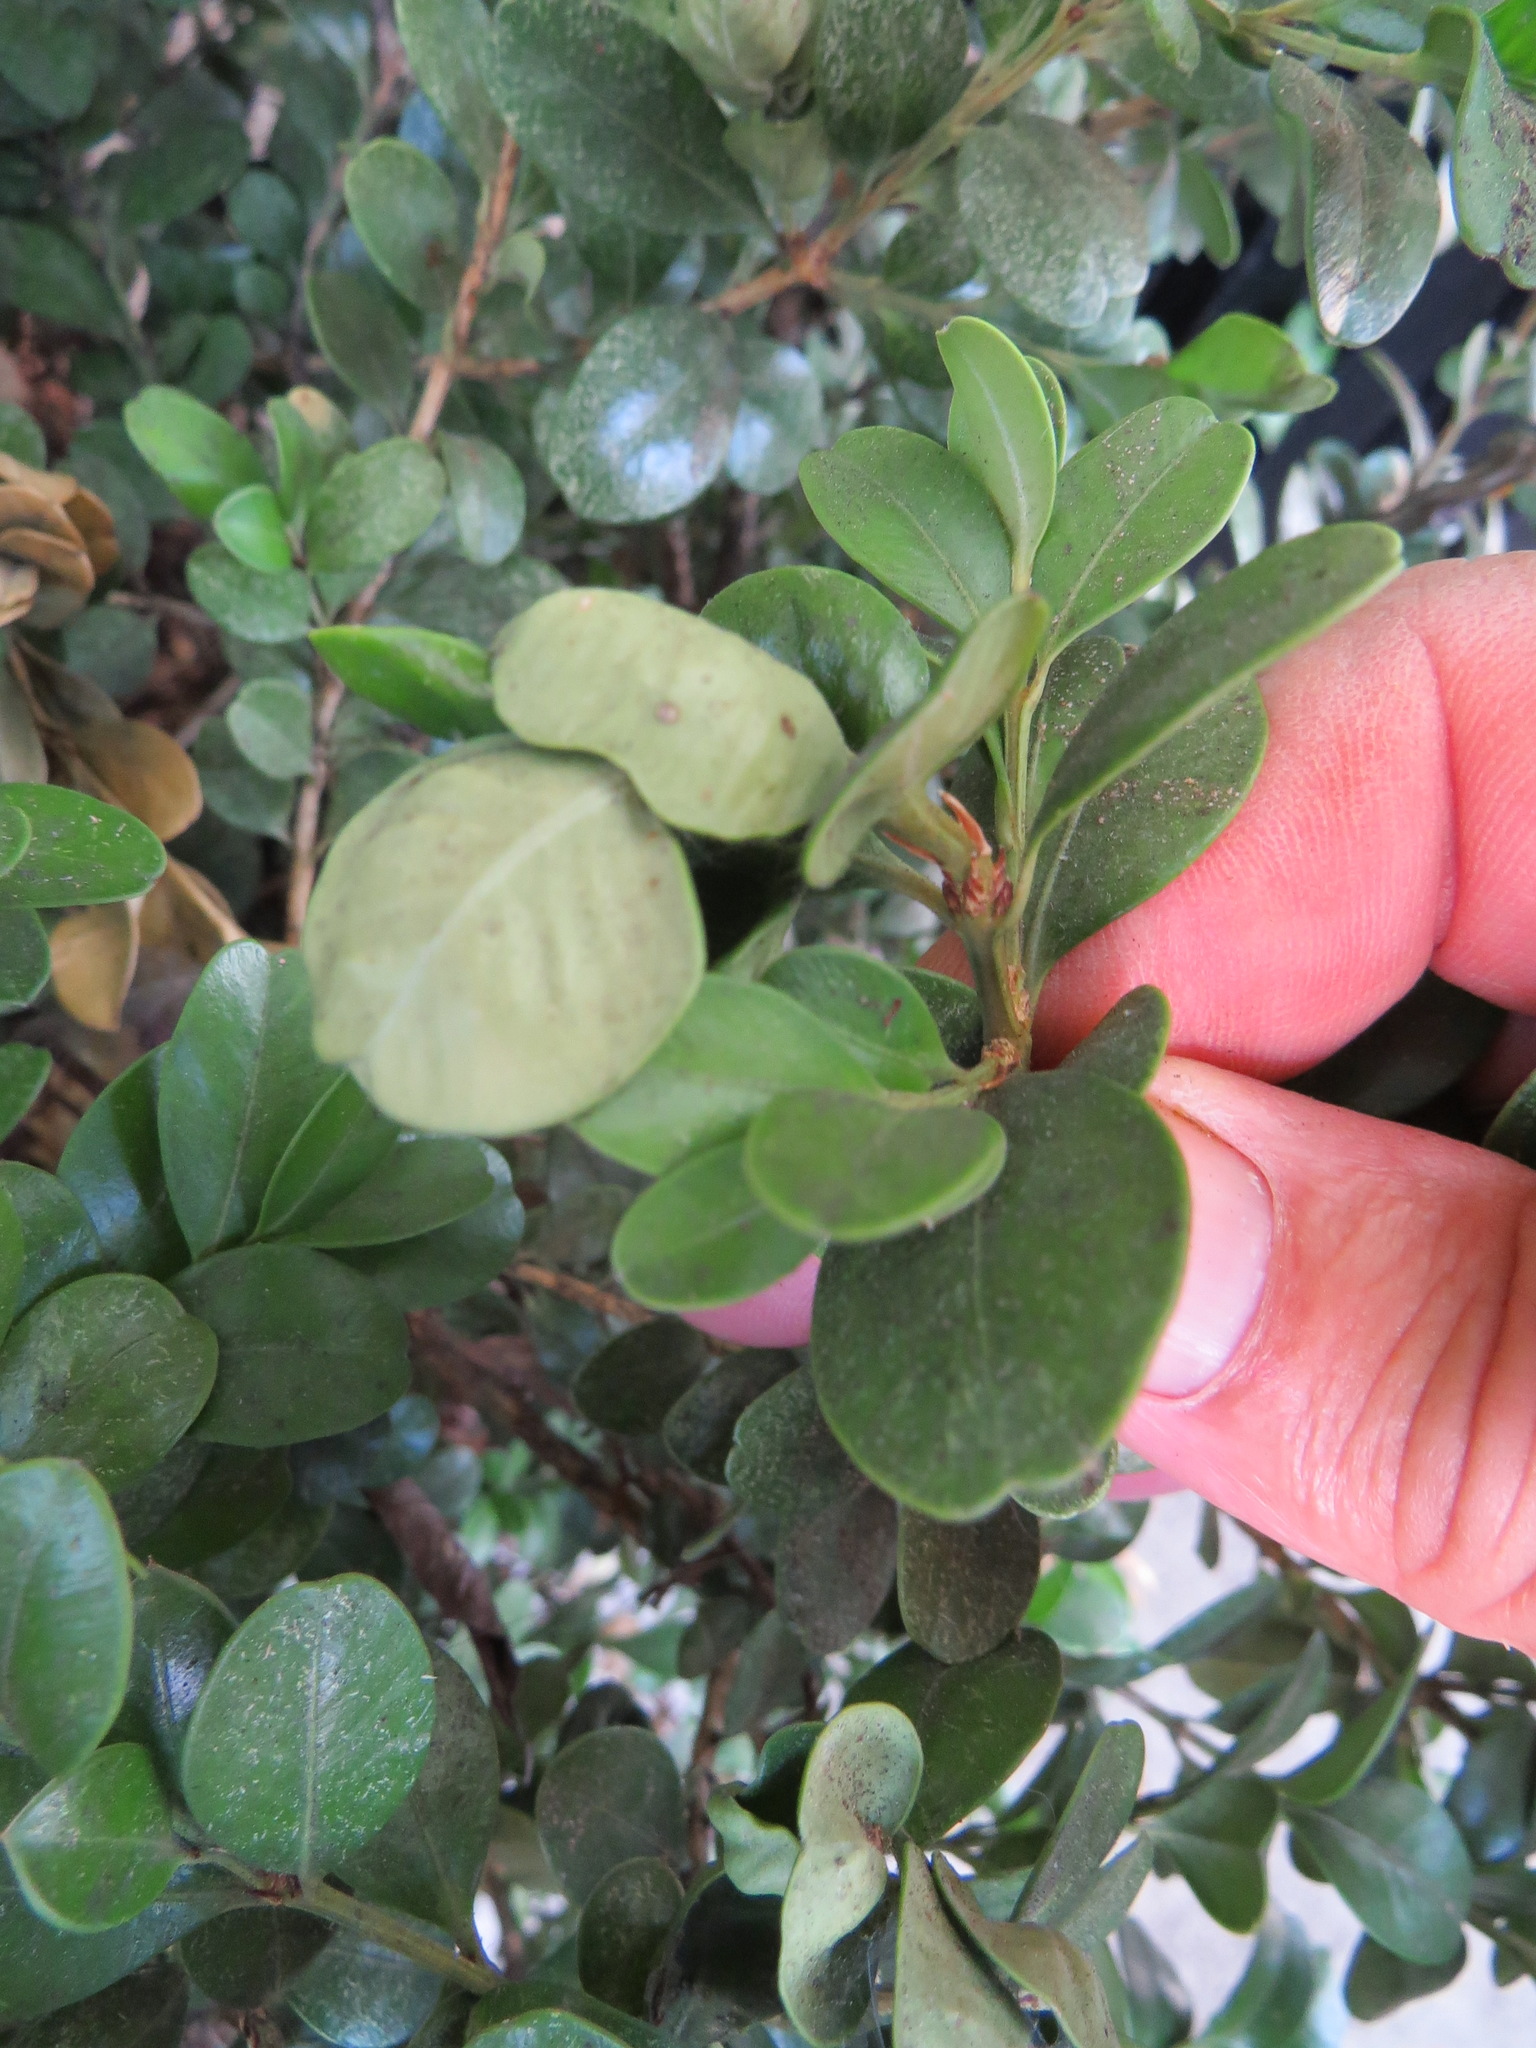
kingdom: Animalia
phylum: Arthropoda
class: Insecta
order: Hemiptera
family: Psyllidae
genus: Psylla
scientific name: Psylla buxi
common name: Boxwood psyllid
